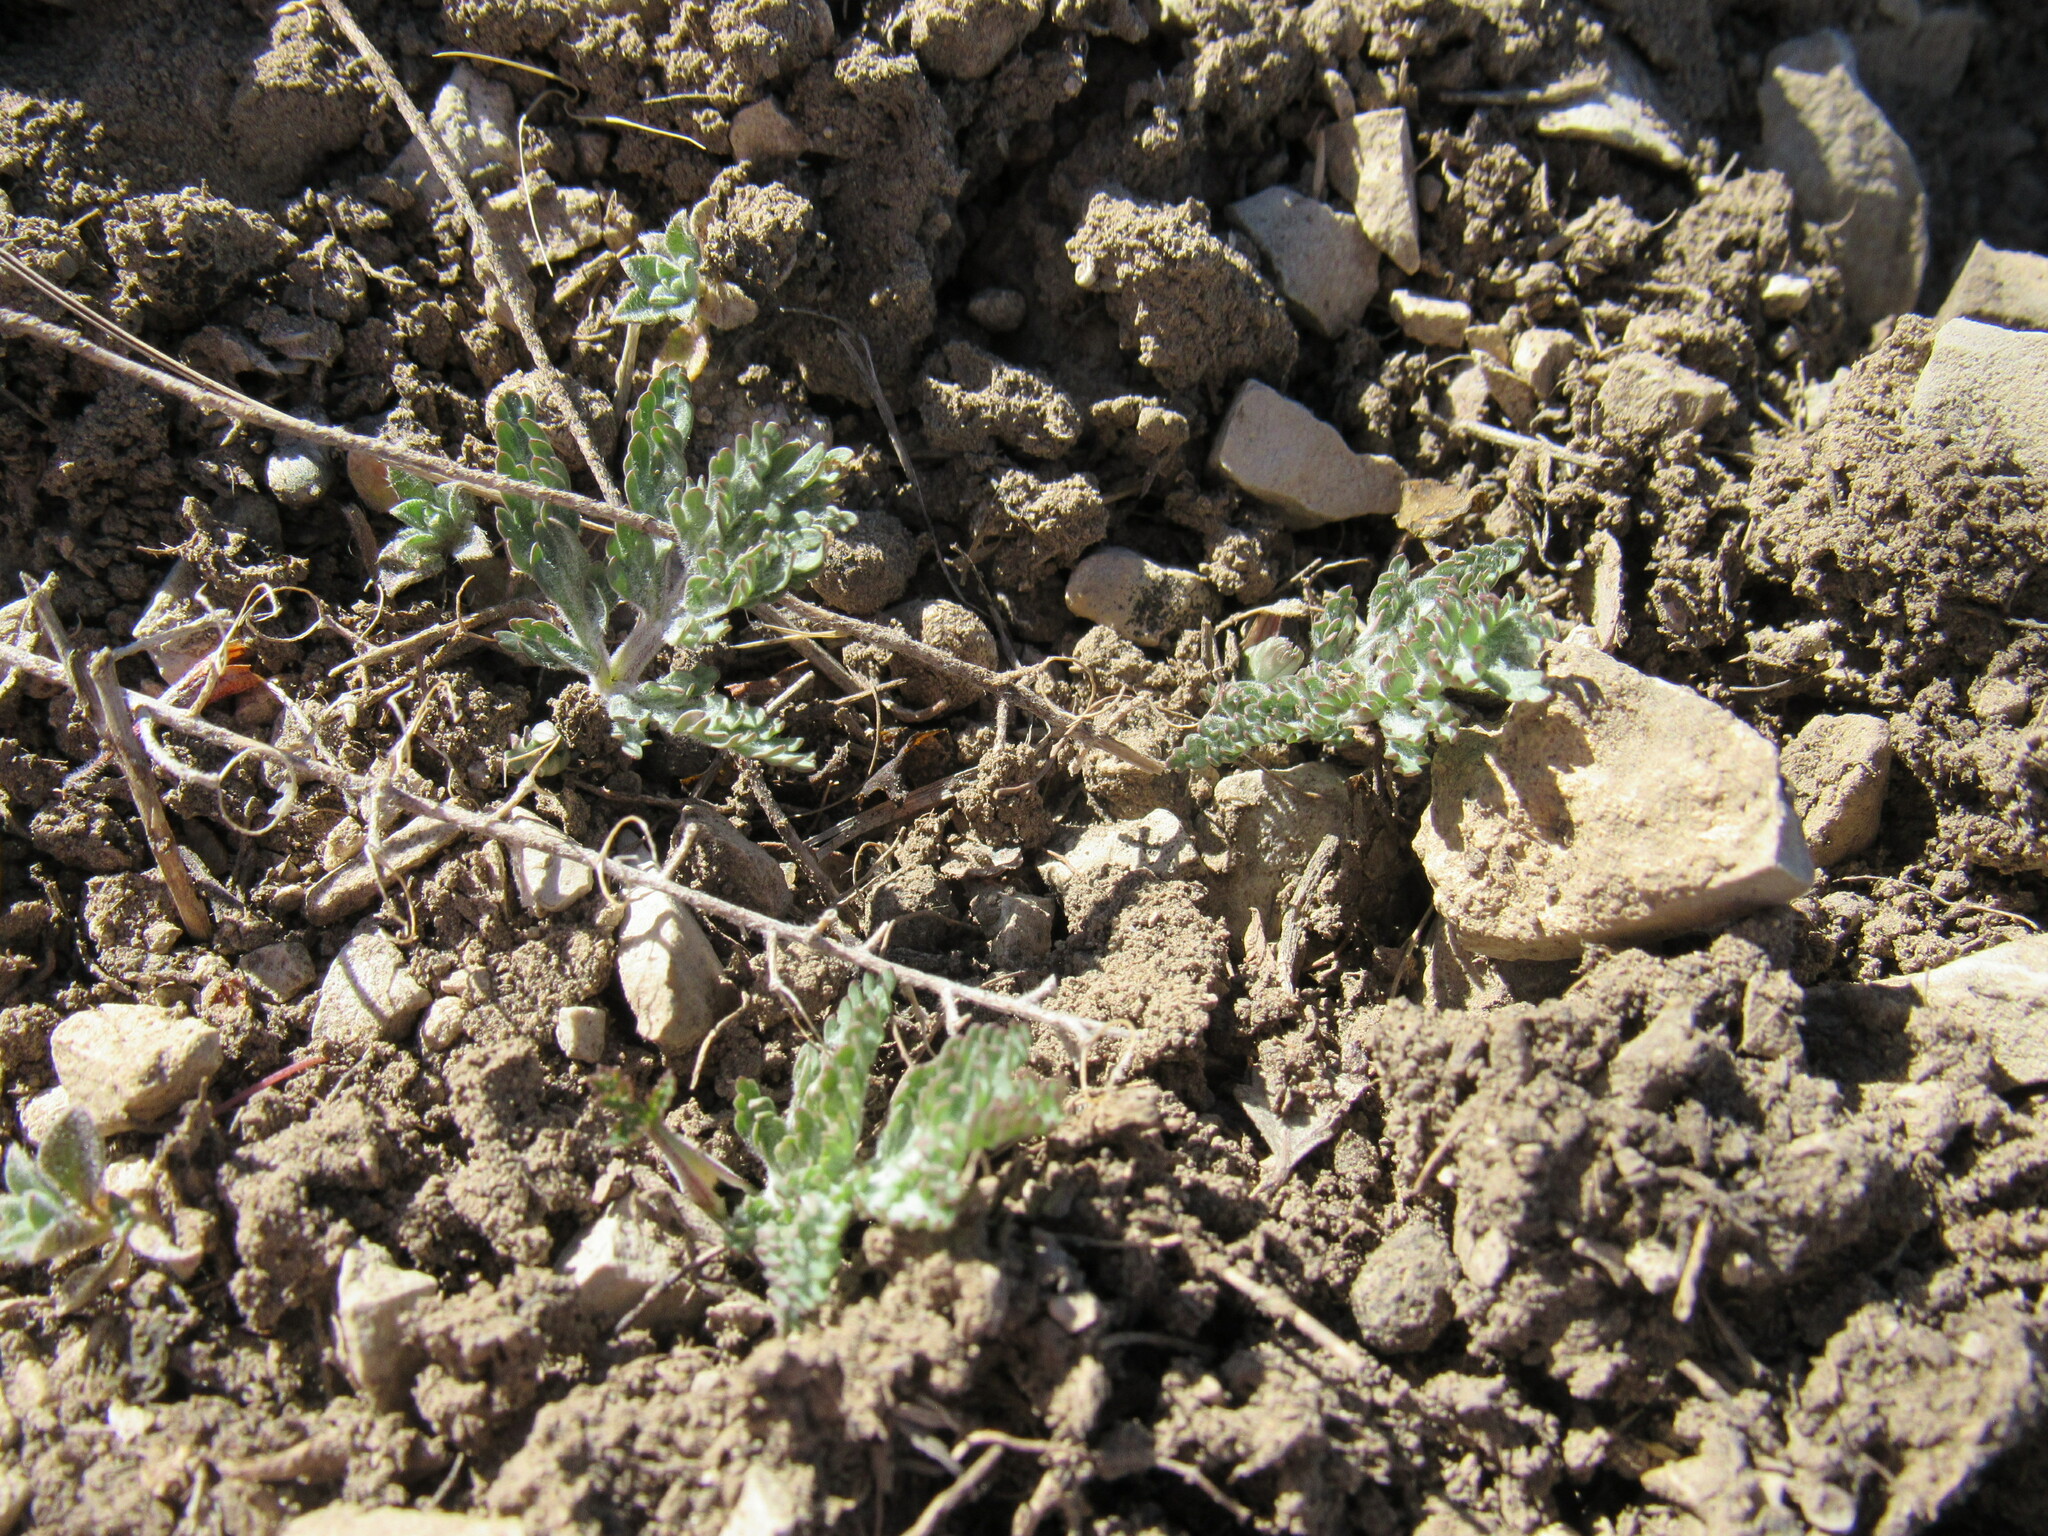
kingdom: Plantae
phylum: Tracheophyta
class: Magnoliopsida
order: Apiales
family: Apiaceae
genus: Lomatium
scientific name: Lomatium orientale
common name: Eastern cous
